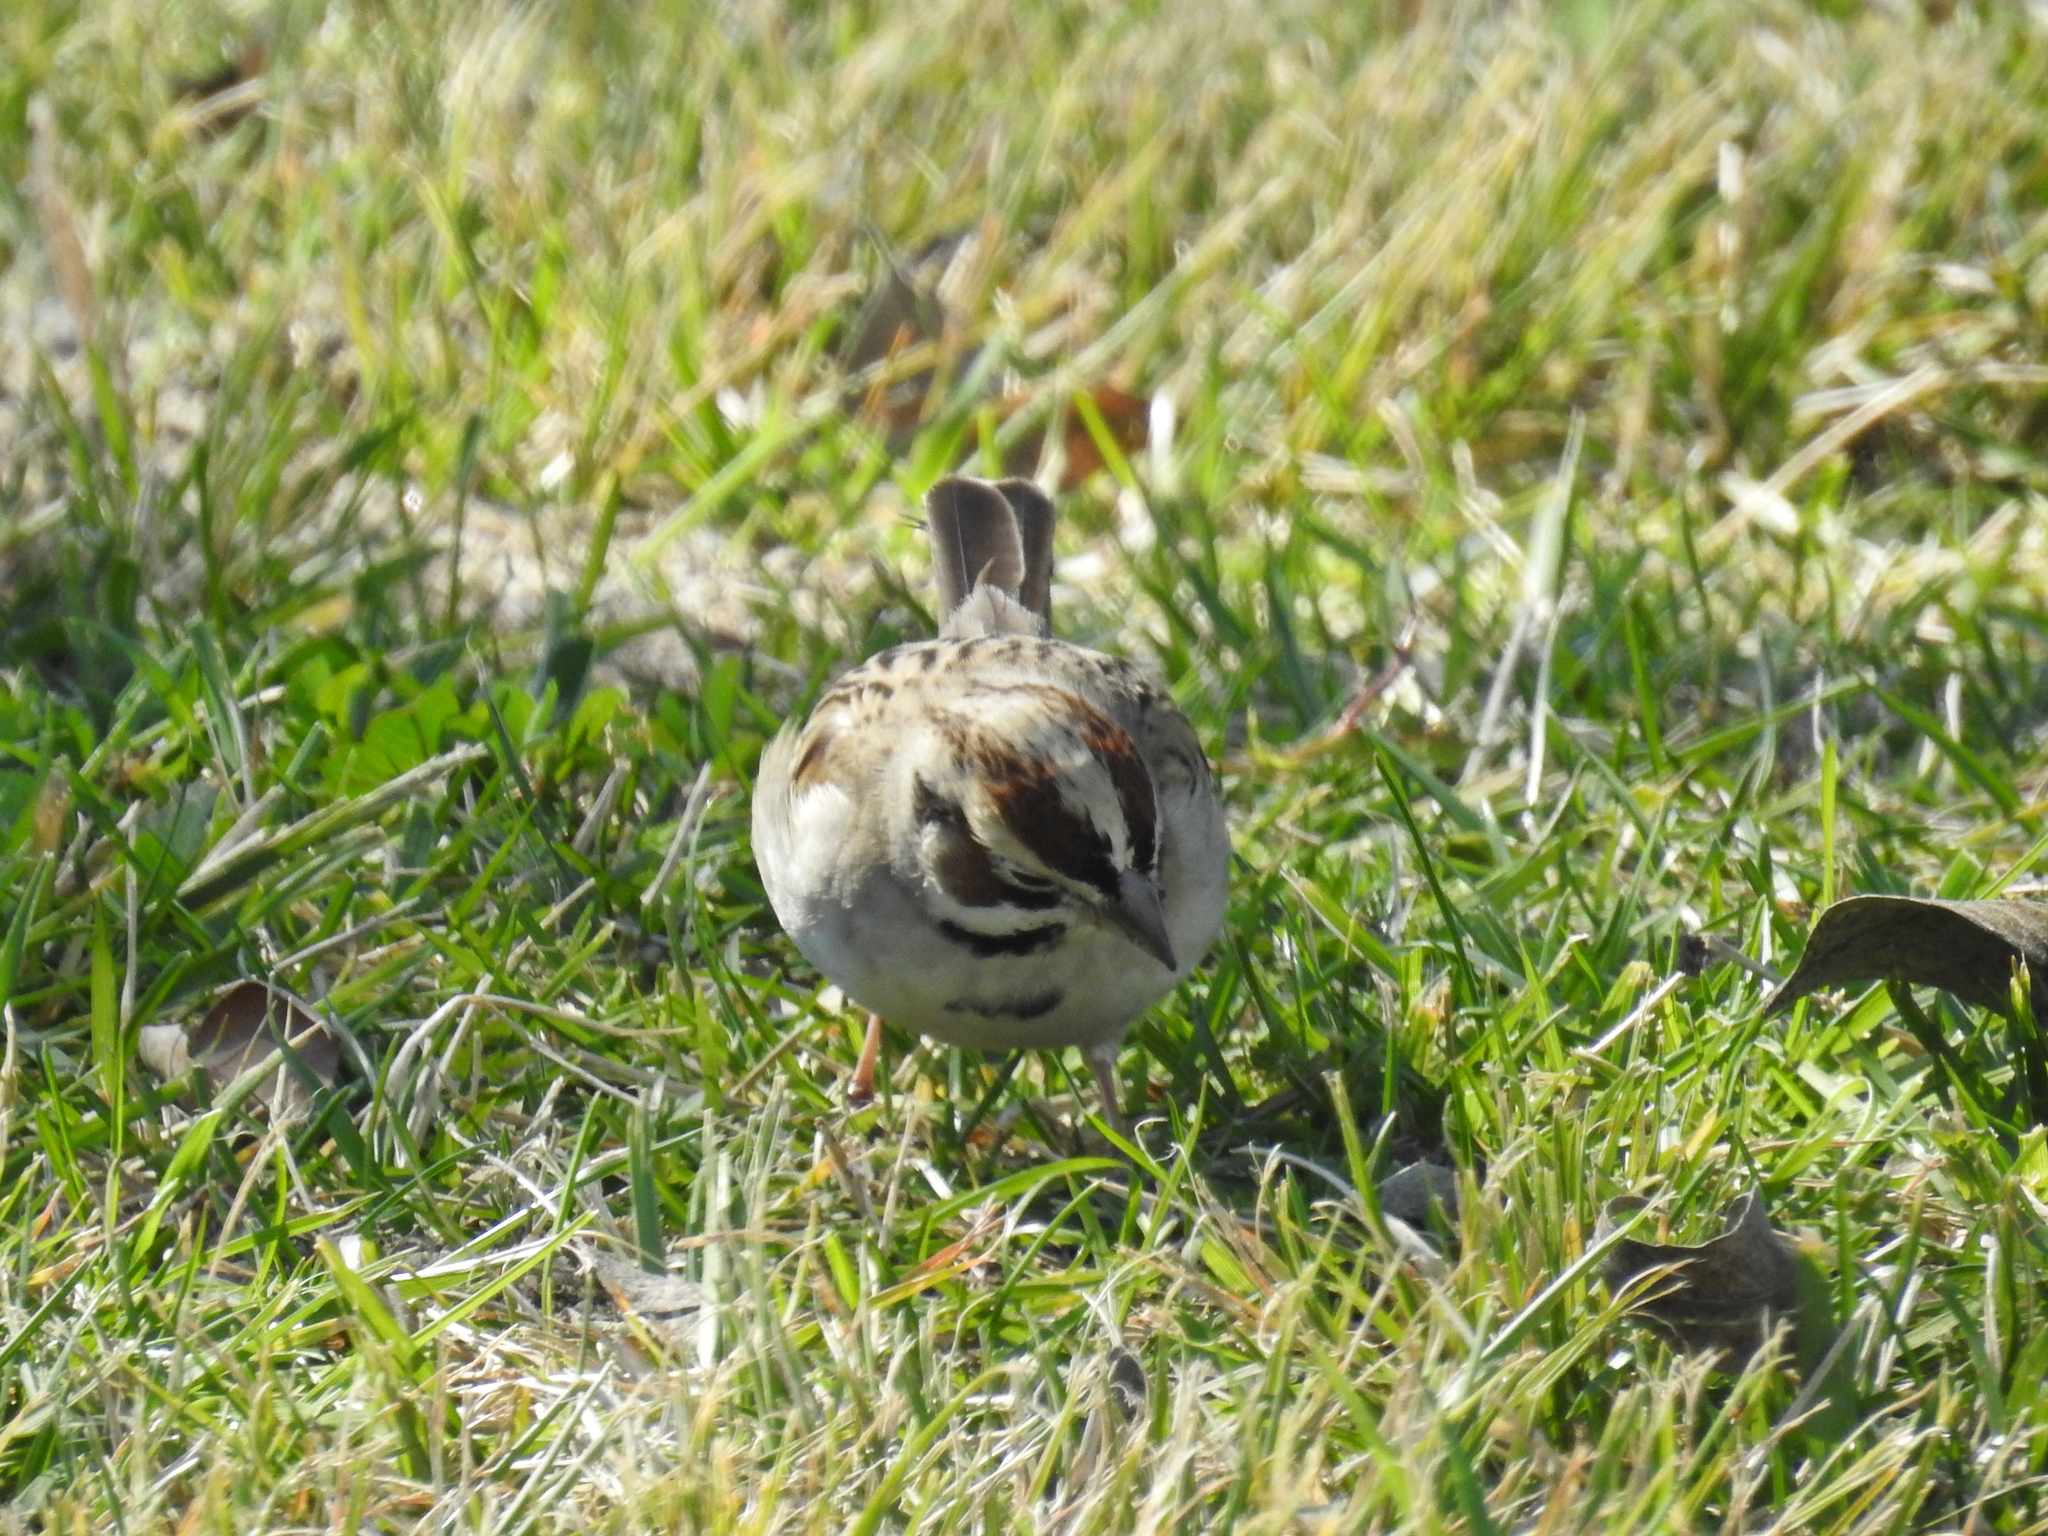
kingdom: Animalia
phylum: Chordata
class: Aves
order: Passeriformes
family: Passerellidae
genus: Chondestes
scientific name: Chondestes grammacus
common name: Lark sparrow
